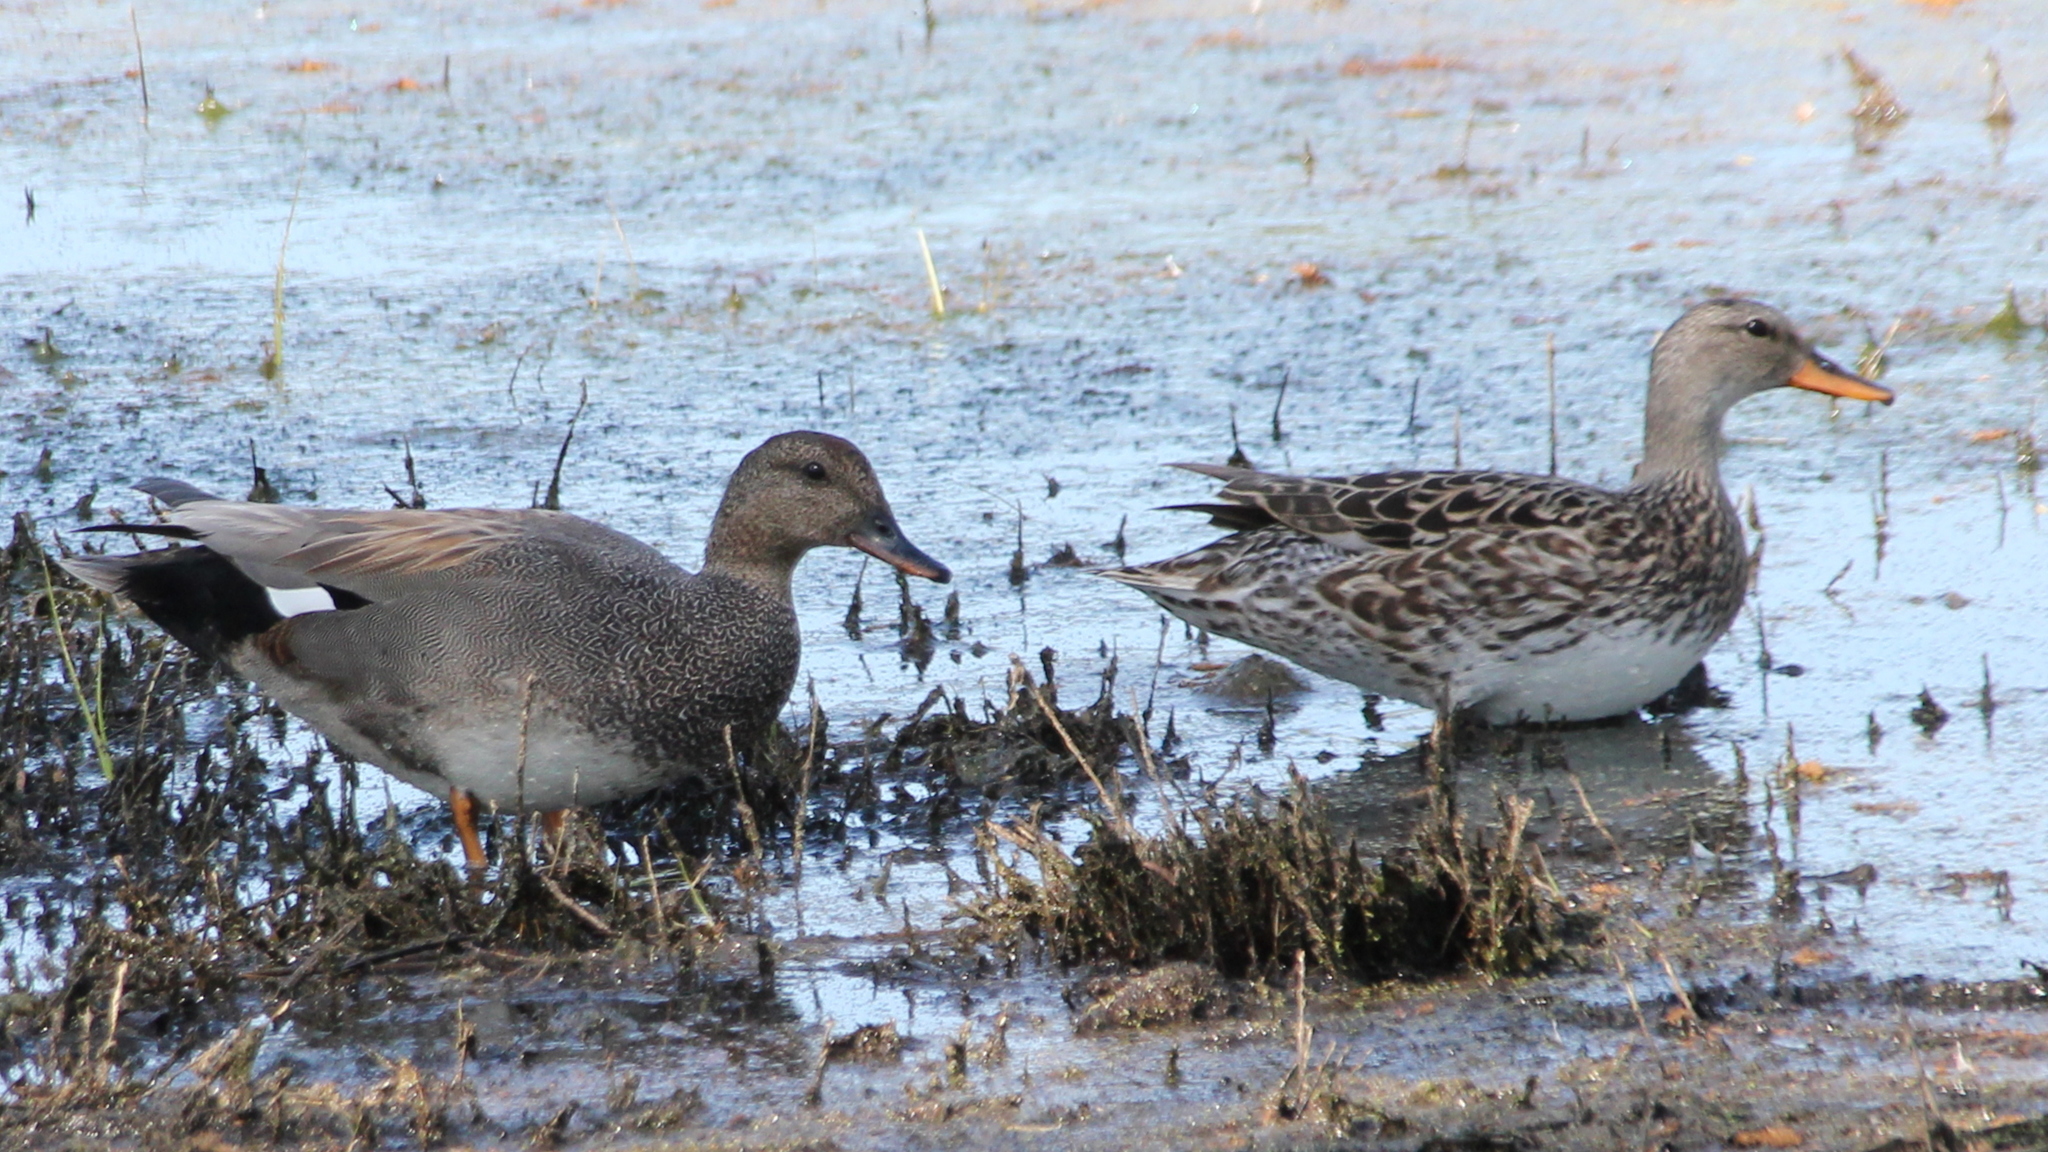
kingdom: Animalia
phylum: Chordata
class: Aves
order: Anseriformes
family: Anatidae
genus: Mareca
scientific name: Mareca strepera
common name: Gadwall
